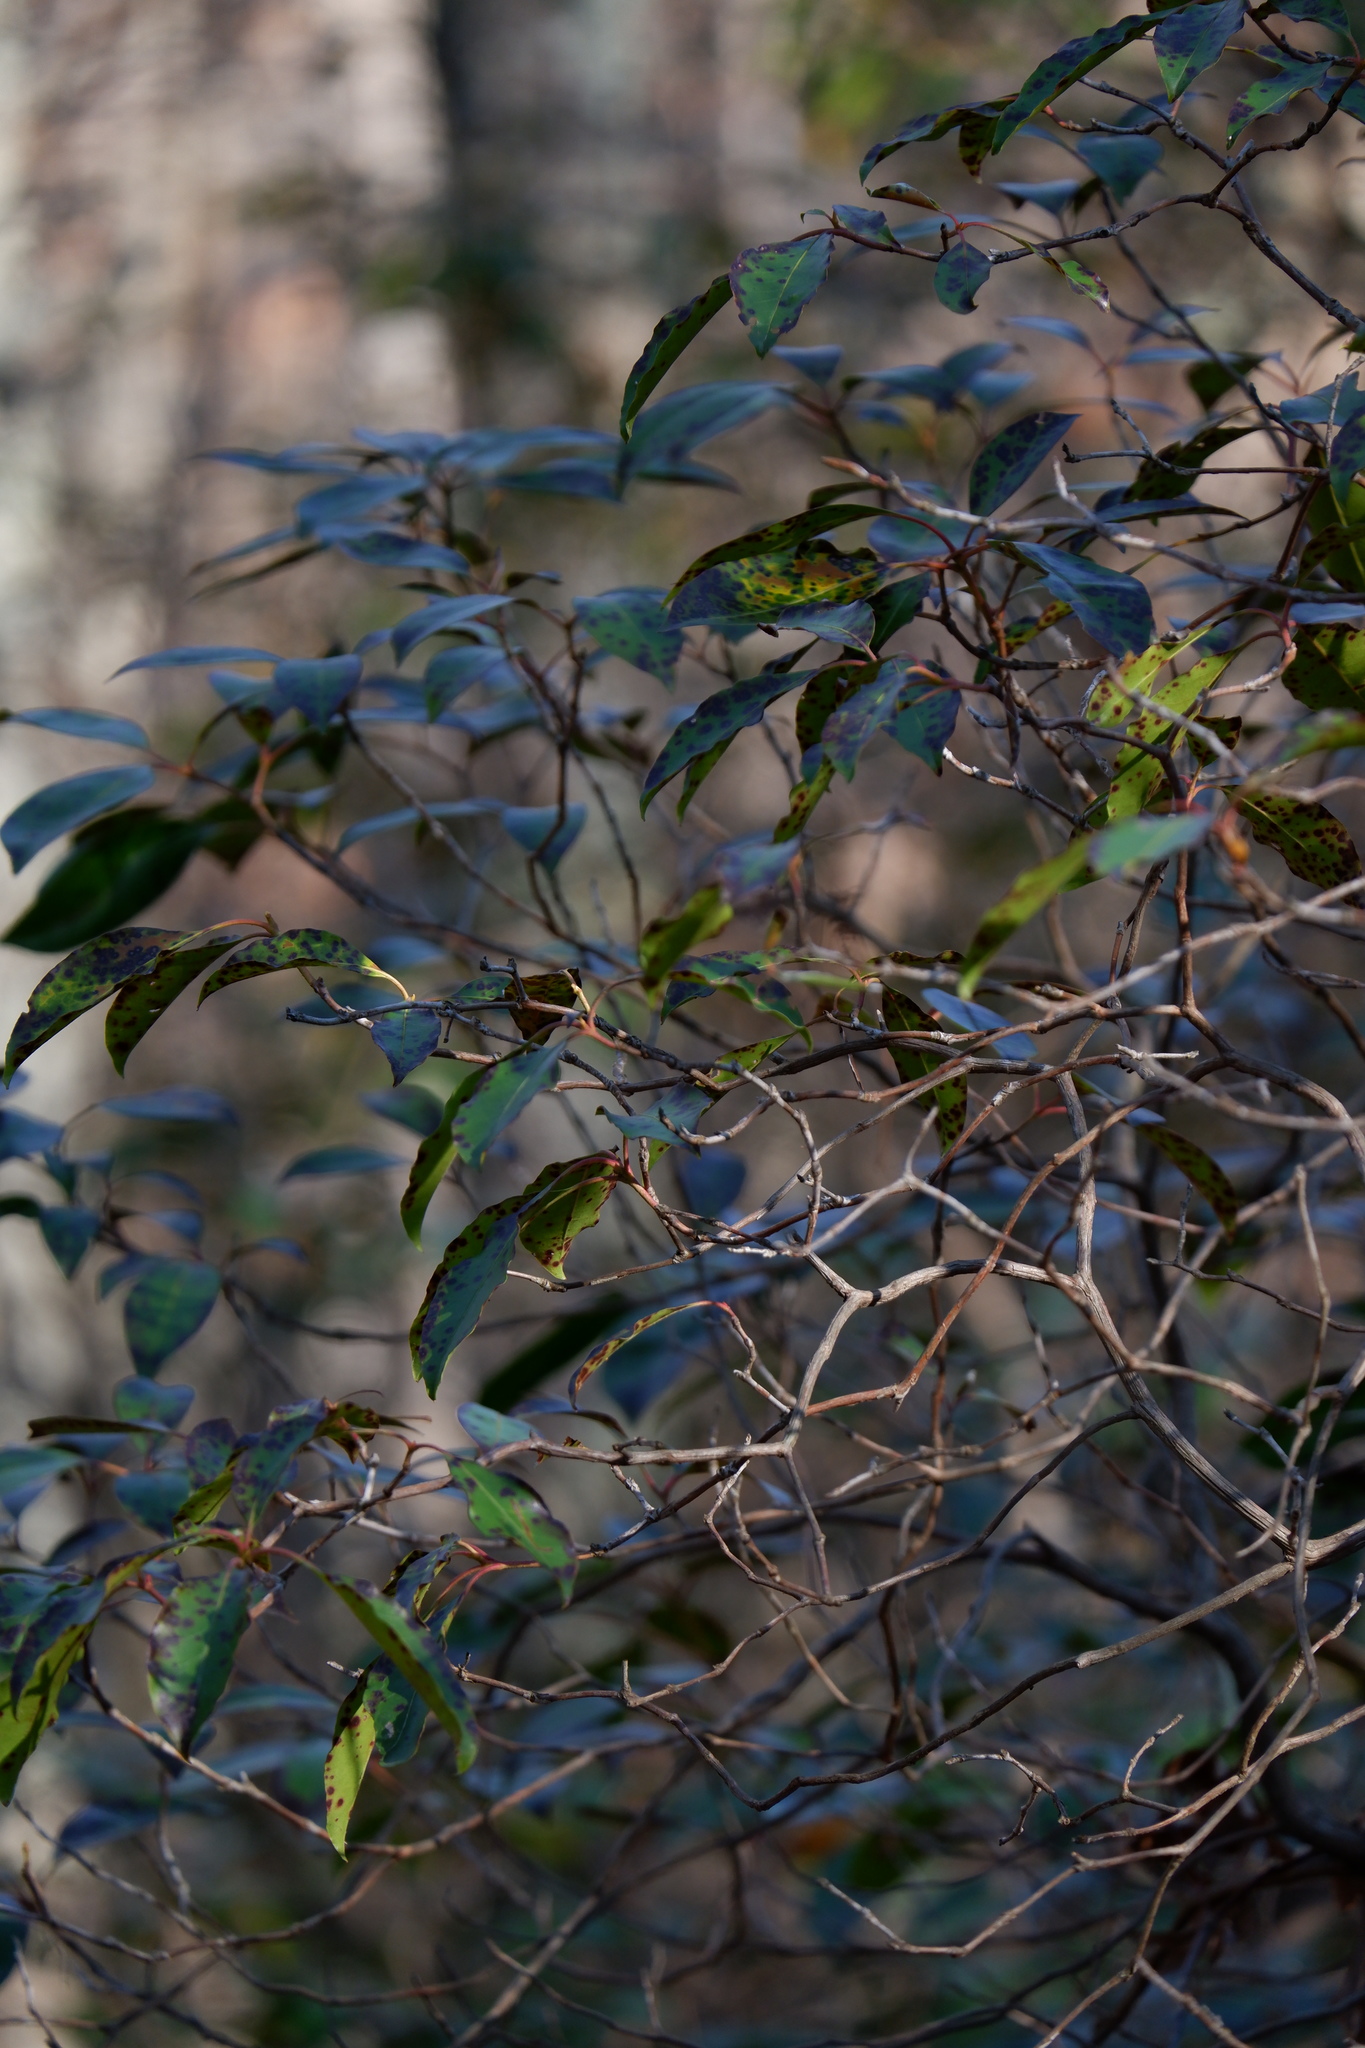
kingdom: Plantae
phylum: Tracheophyta
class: Magnoliopsida
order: Ericales
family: Ericaceae
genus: Kalmia
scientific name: Kalmia latifolia
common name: Mountain-laurel
